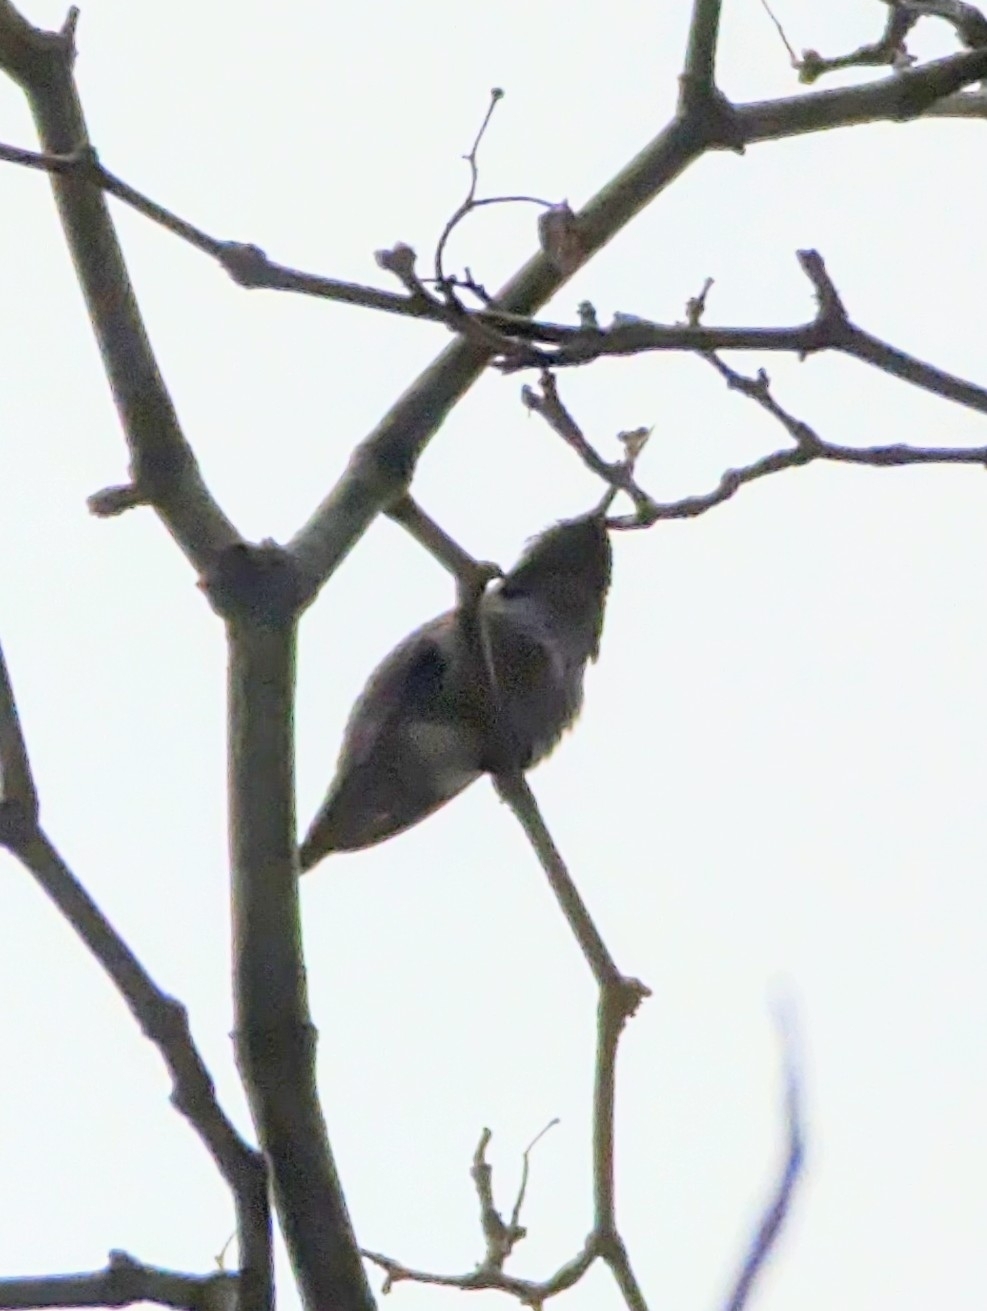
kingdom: Animalia
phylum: Chordata
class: Aves
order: Apodiformes
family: Trochilidae
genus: Calypte
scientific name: Calypte anna
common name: Anna's hummingbird
